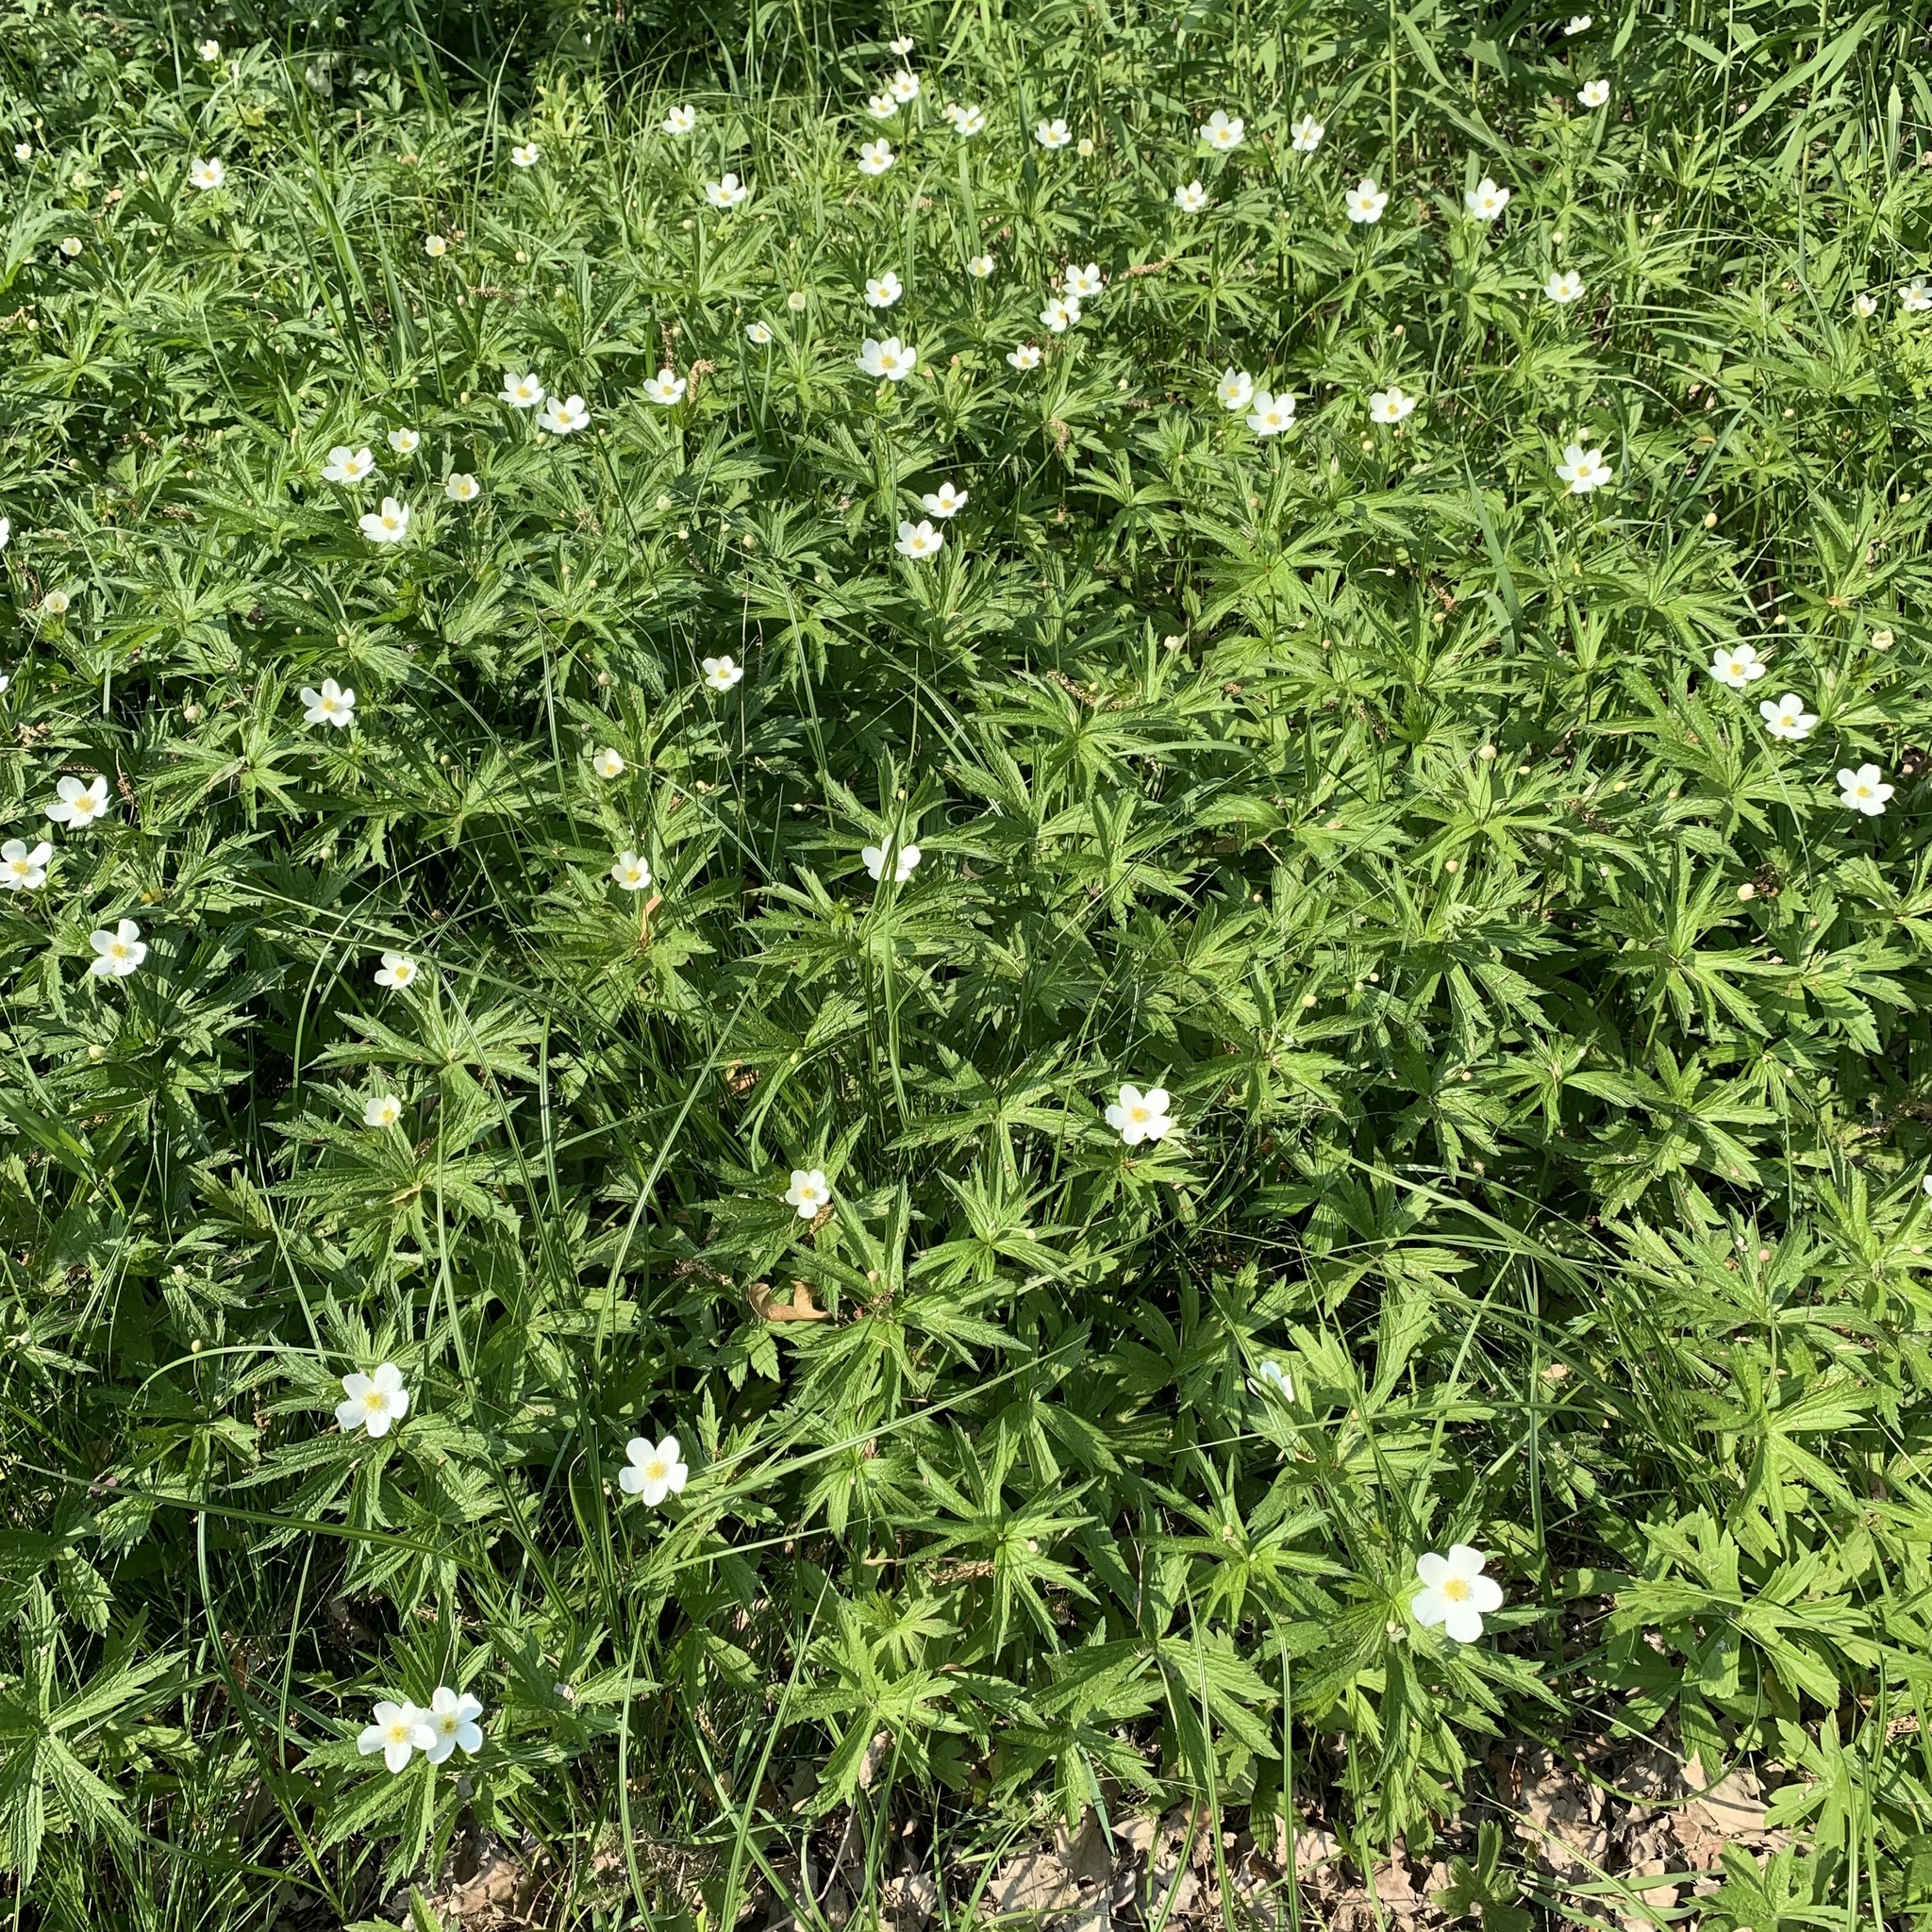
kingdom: Plantae
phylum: Tracheophyta
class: Magnoliopsida
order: Ranunculales
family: Ranunculaceae
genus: Anemonastrum
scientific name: Anemonastrum canadense
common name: Canada anemone
